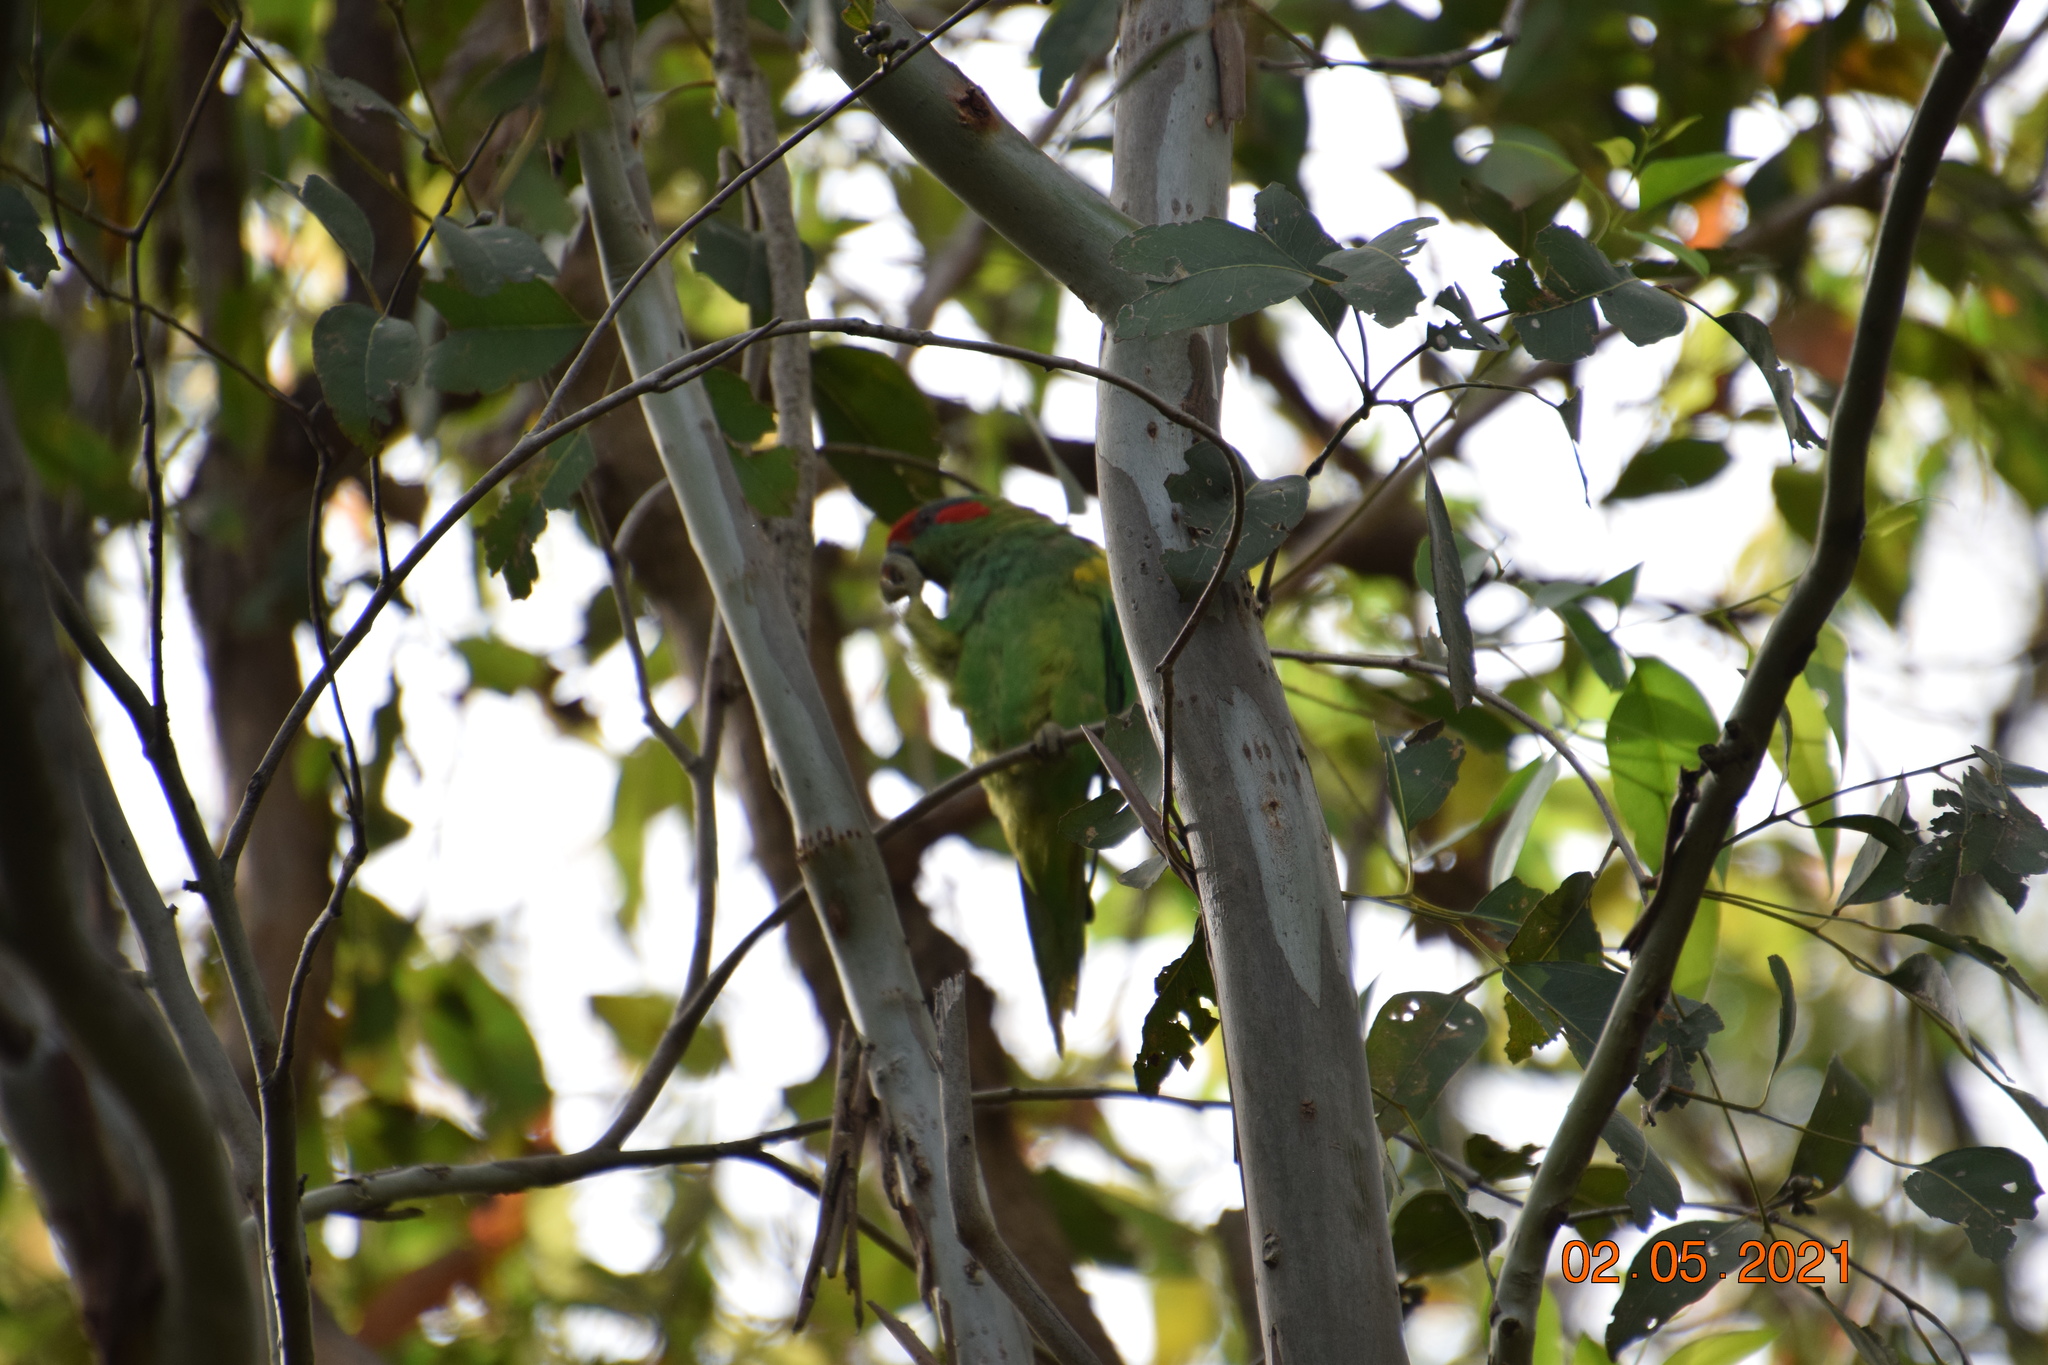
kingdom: Animalia
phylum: Chordata
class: Aves
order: Psittaciformes
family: Psittacidae
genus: Glossopsitta
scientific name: Glossopsitta concinna
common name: Musk lorikeet
